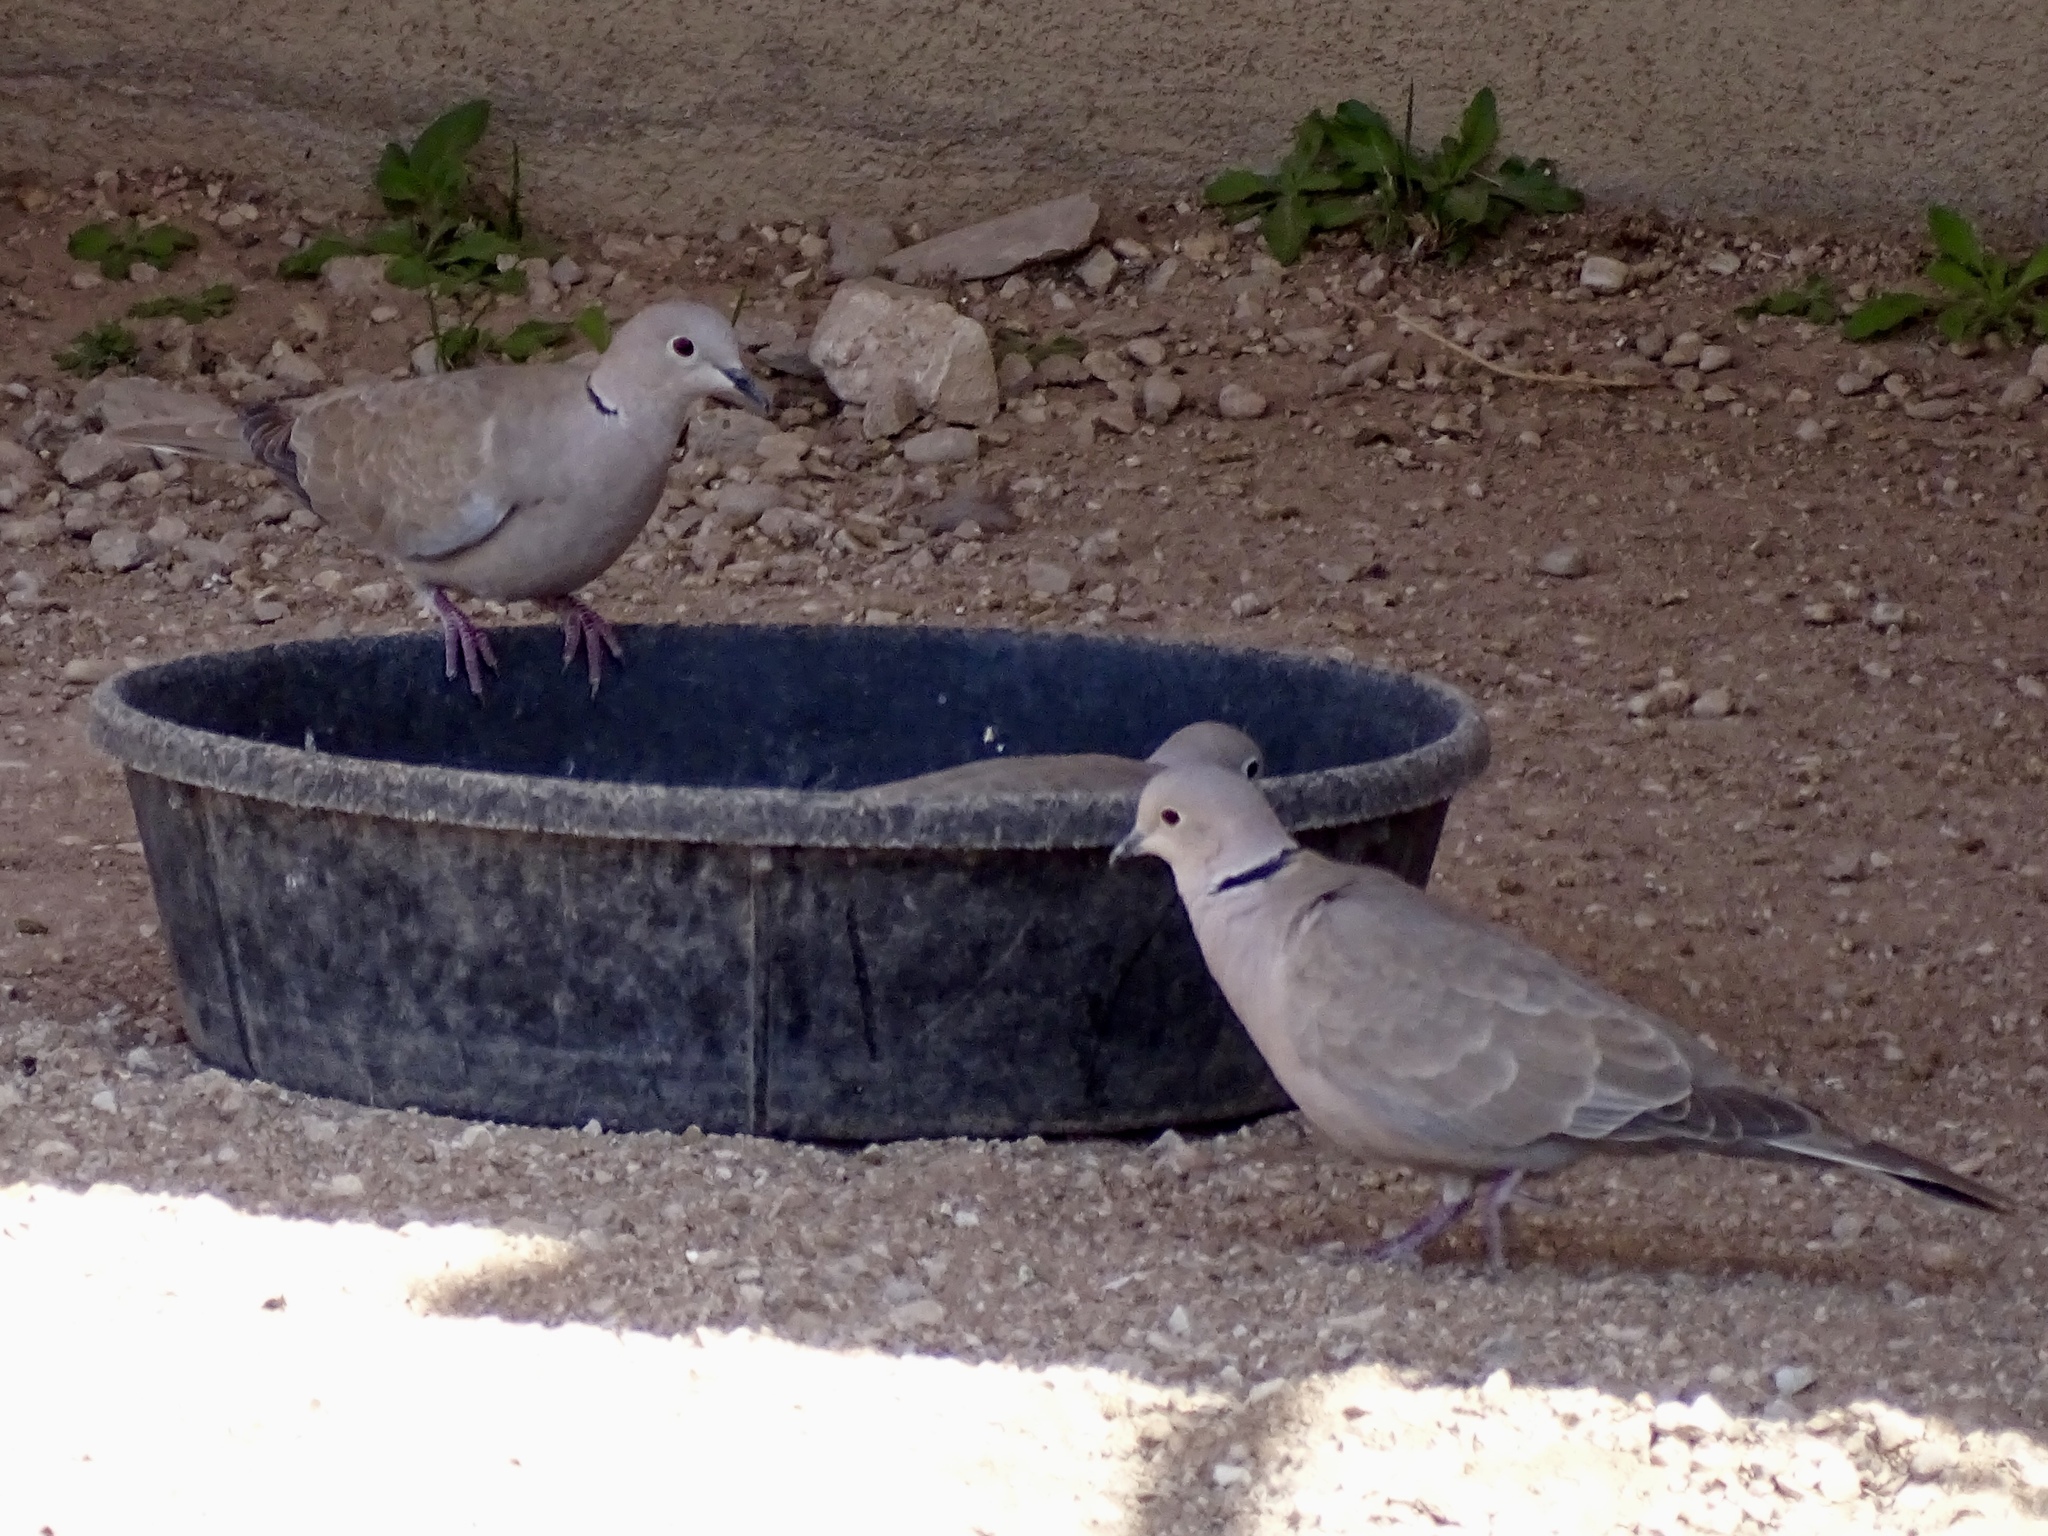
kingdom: Animalia
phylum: Chordata
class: Aves
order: Columbiformes
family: Columbidae
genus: Streptopelia
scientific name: Streptopelia decaocto
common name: Eurasian collared dove
